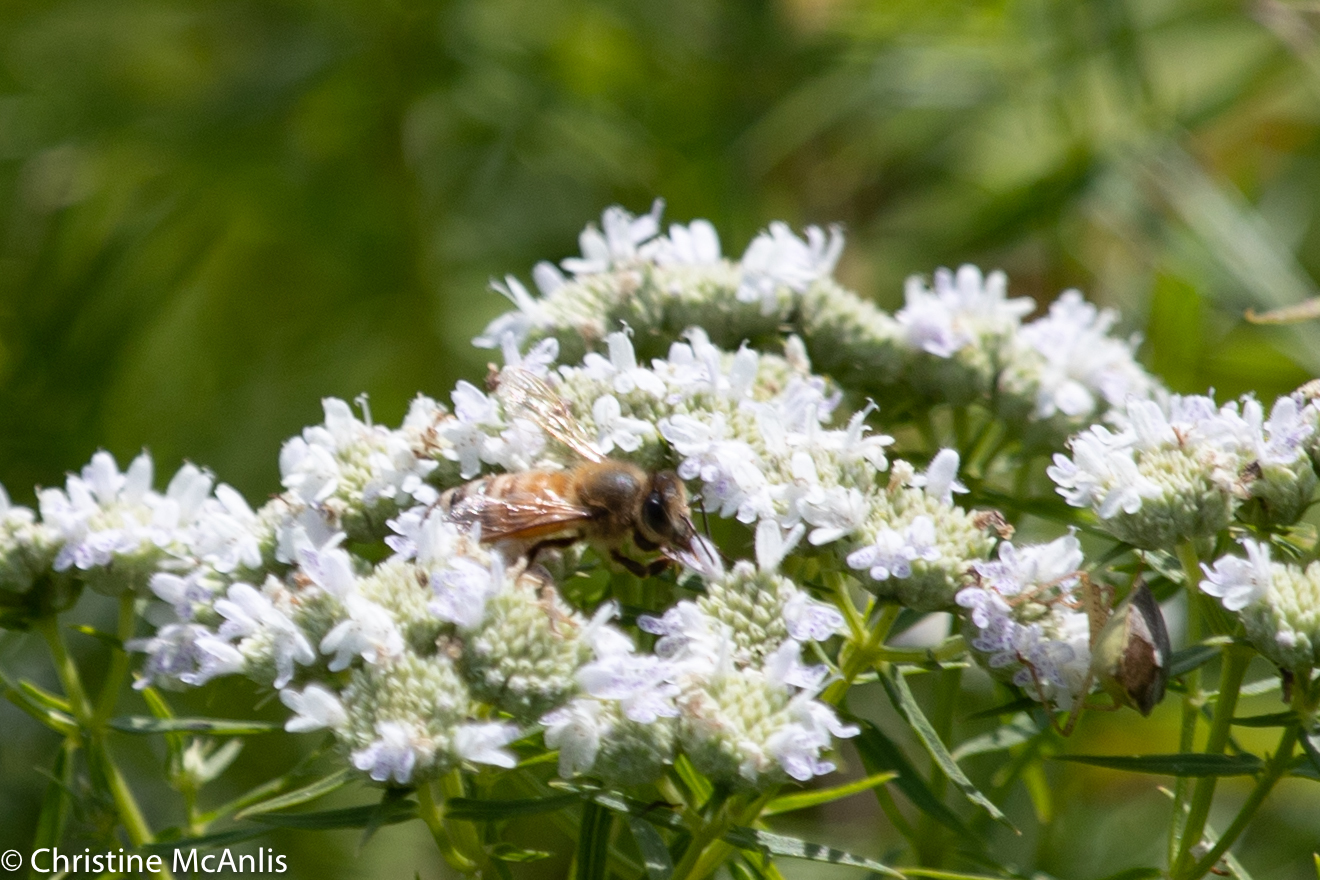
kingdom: Animalia
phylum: Arthropoda
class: Insecta
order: Hymenoptera
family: Apidae
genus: Apis
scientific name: Apis mellifera
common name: Honey bee
